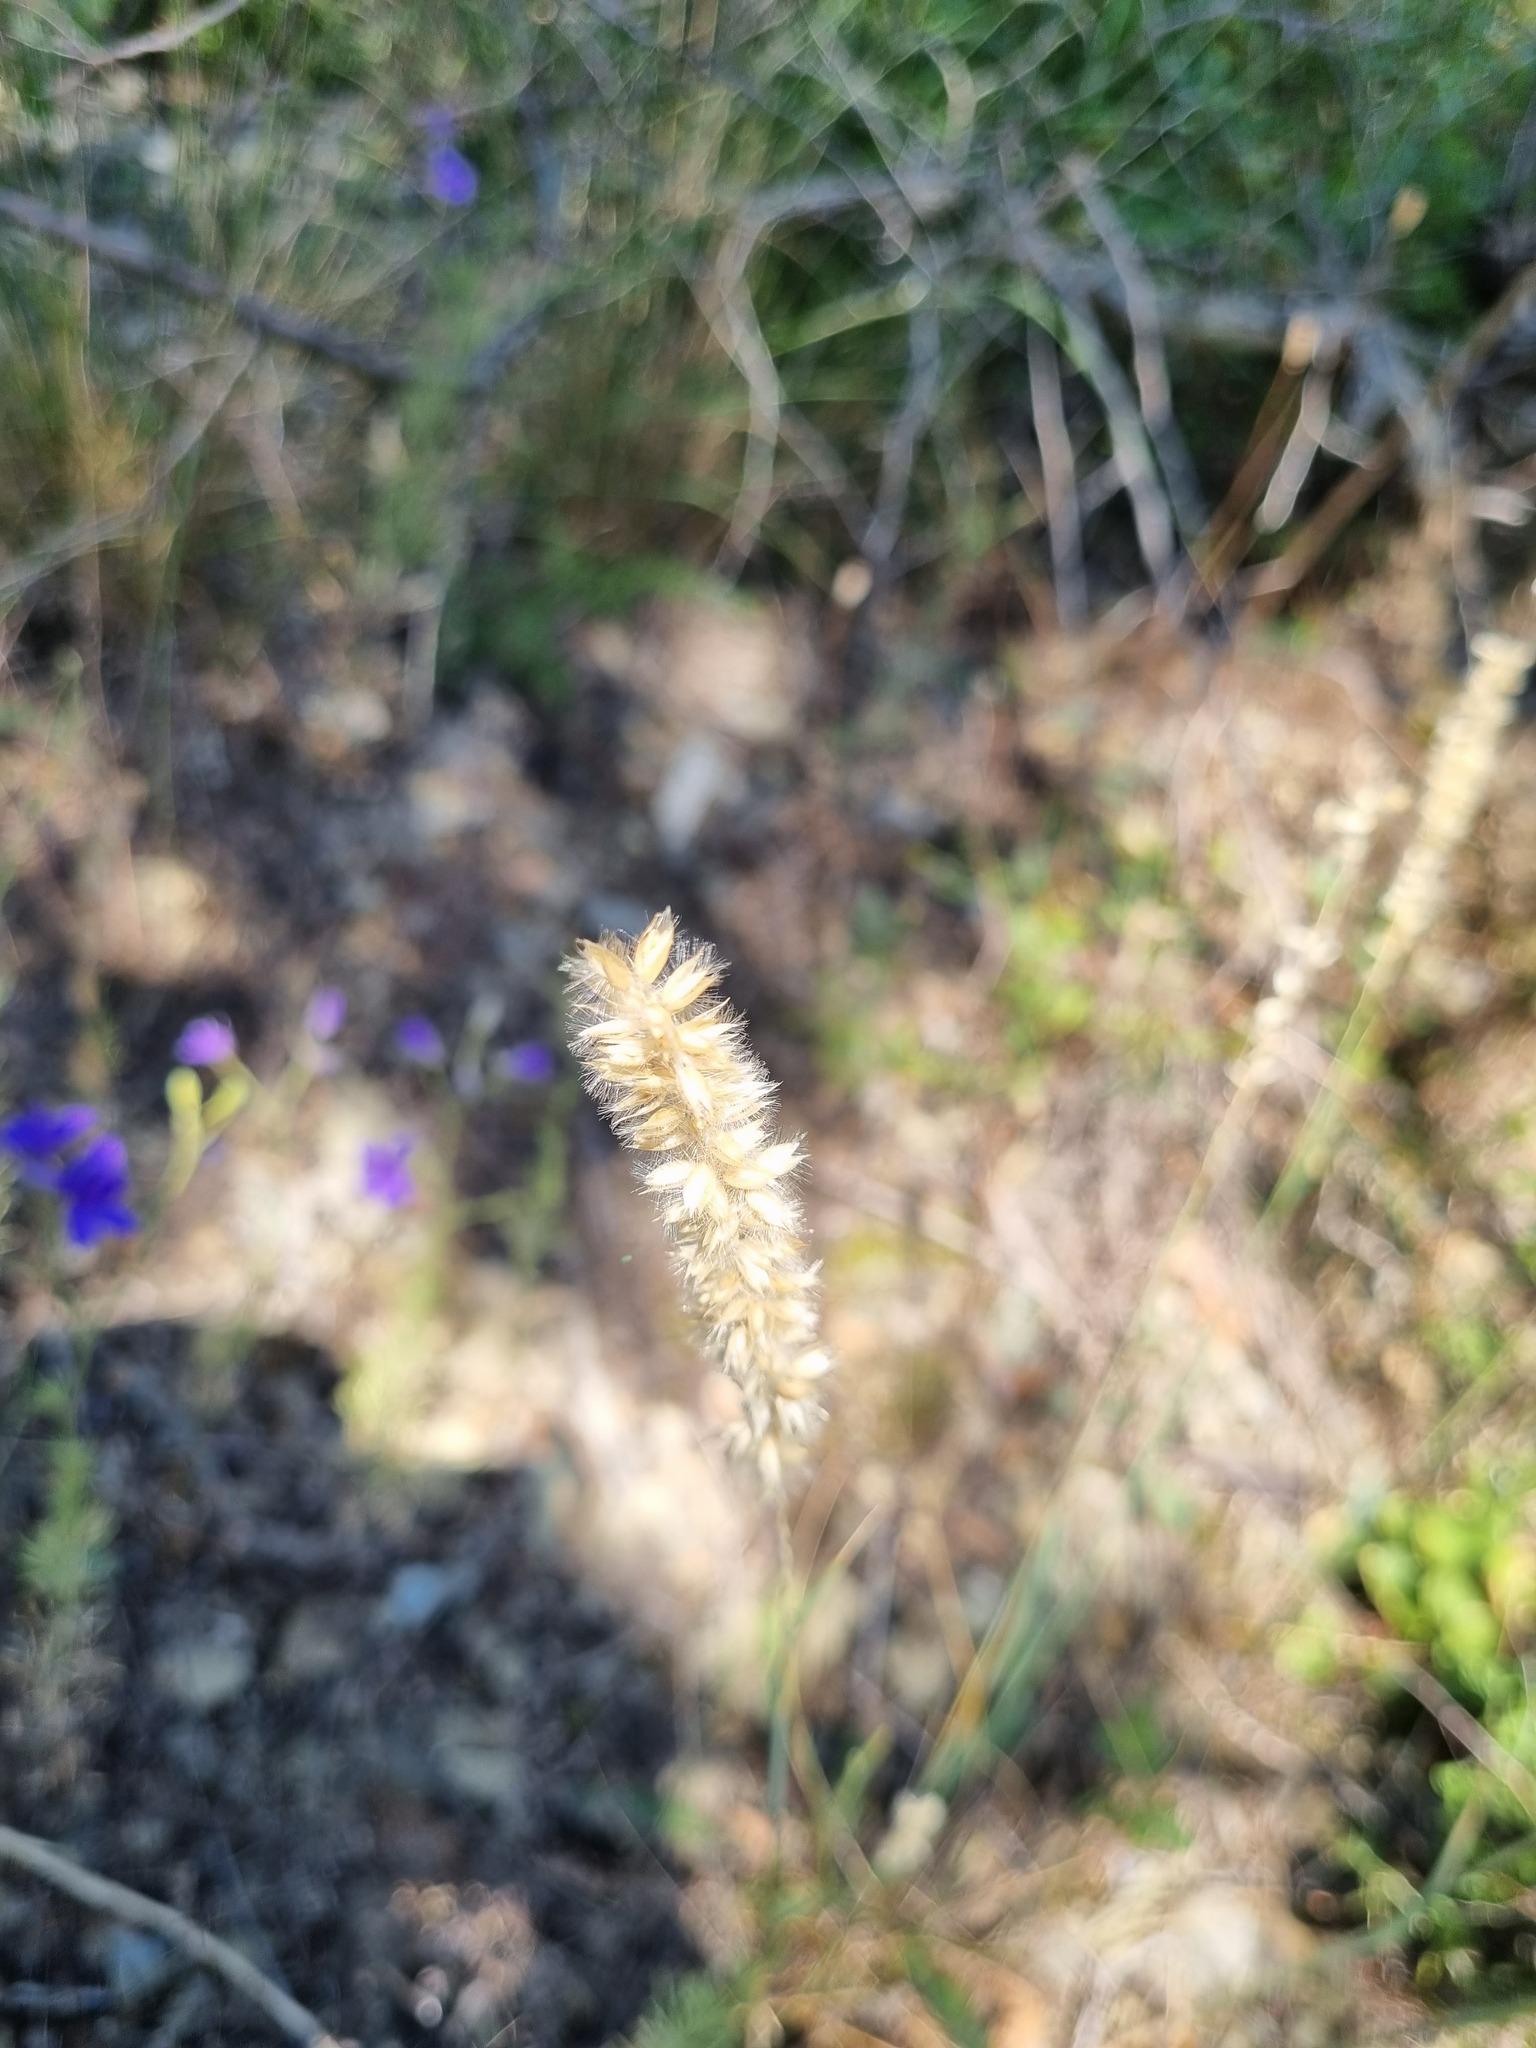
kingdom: Plantae
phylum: Tracheophyta
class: Liliopsida
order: Poales
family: Poaceae
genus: Melica
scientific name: Melica transsilvanica
